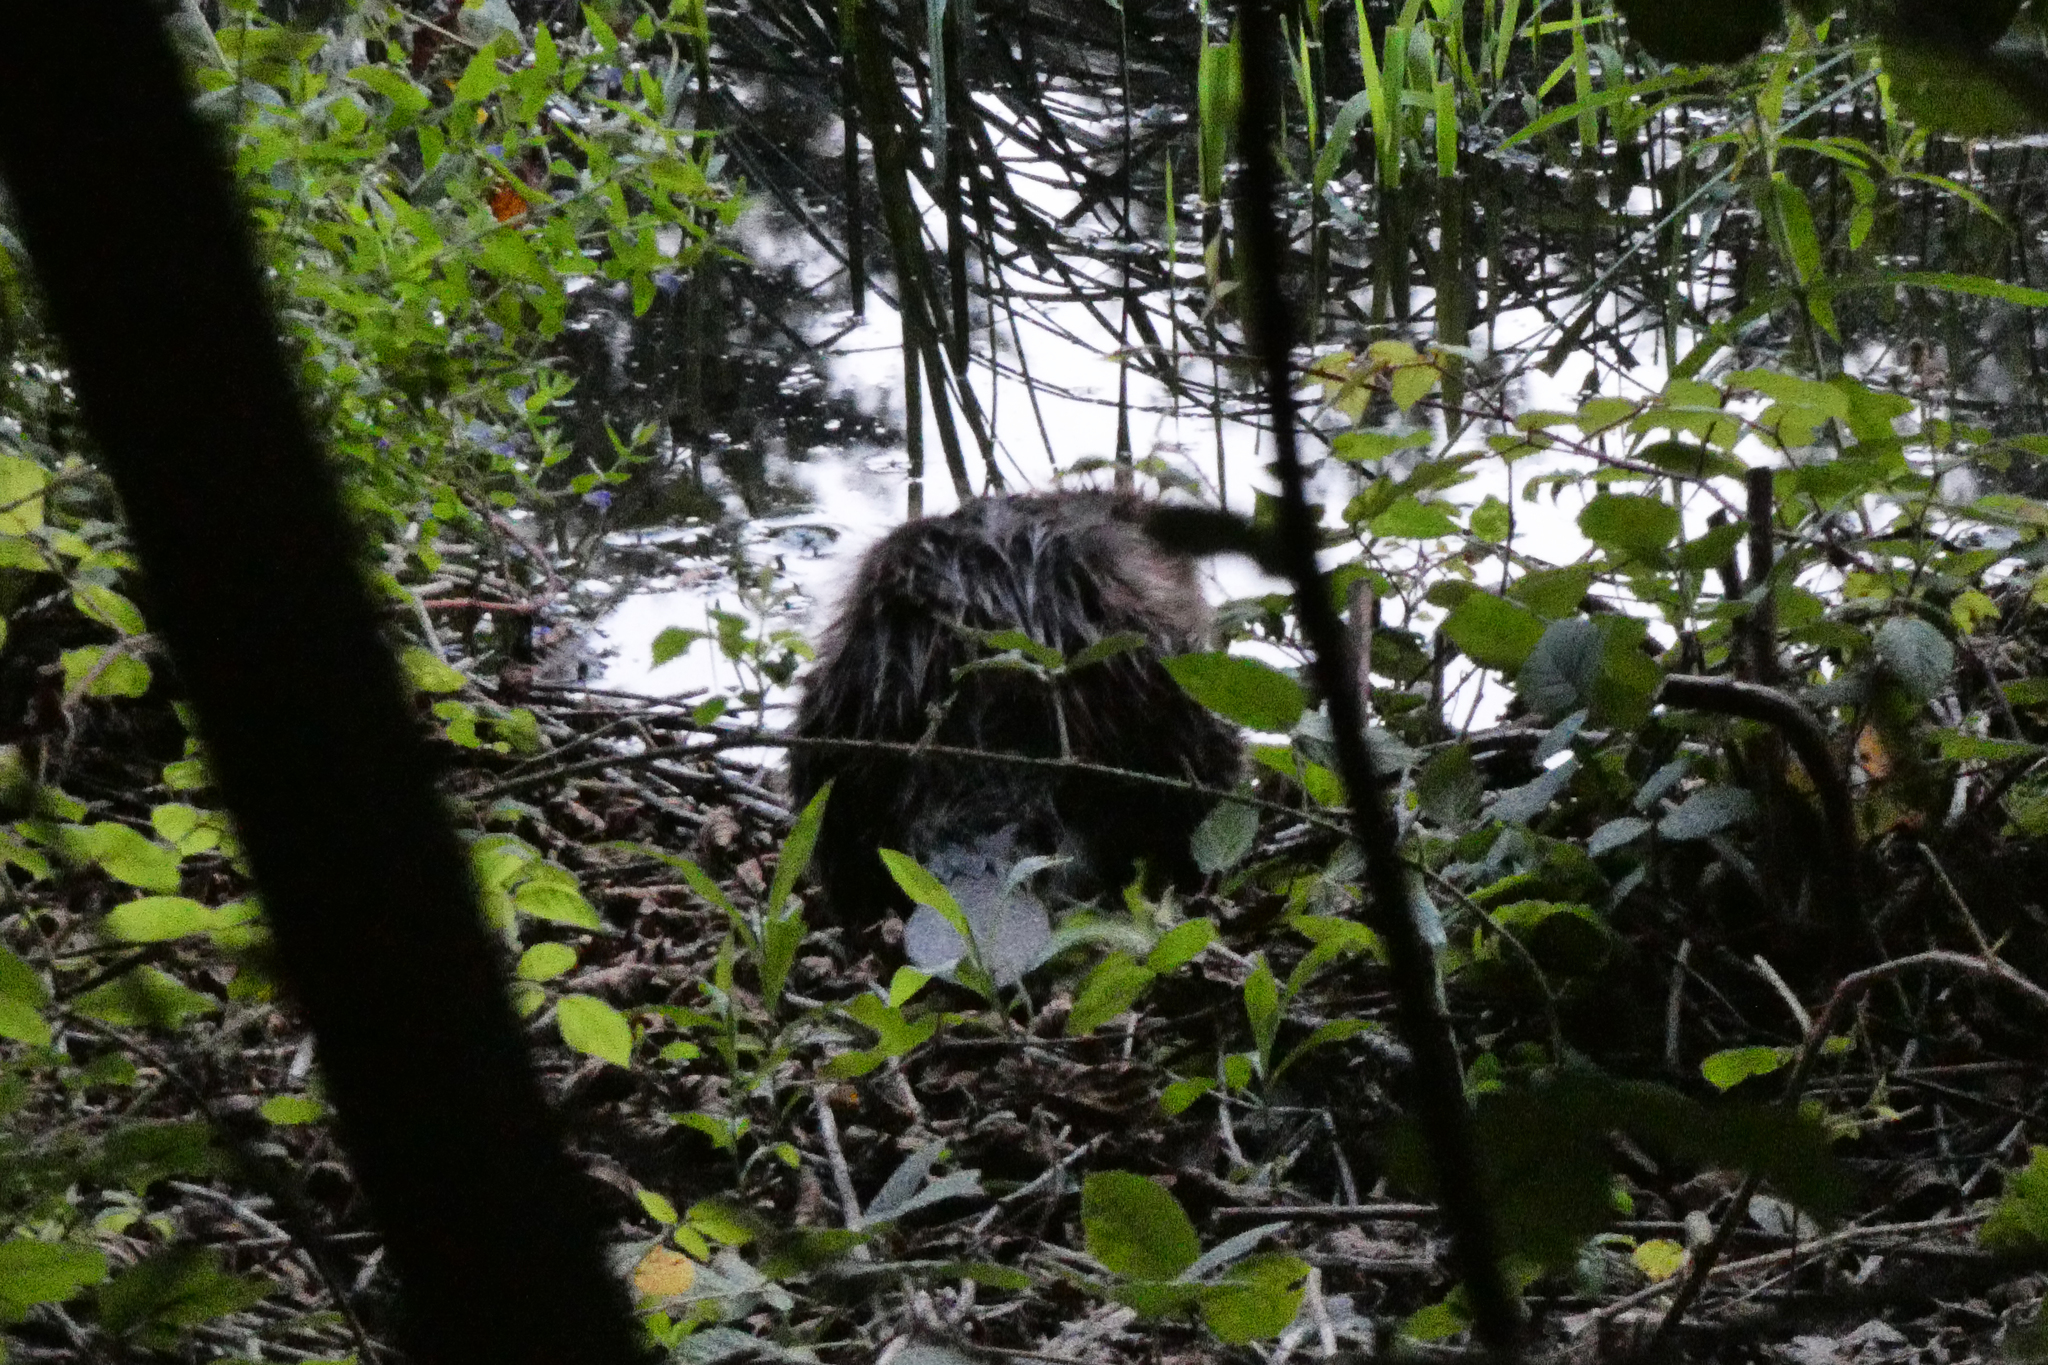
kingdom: Animalia
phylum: Chordata
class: Mammalia
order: Rodentia
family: Castoridae
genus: Castor
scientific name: Castor fiber
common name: Eurasian beaver
